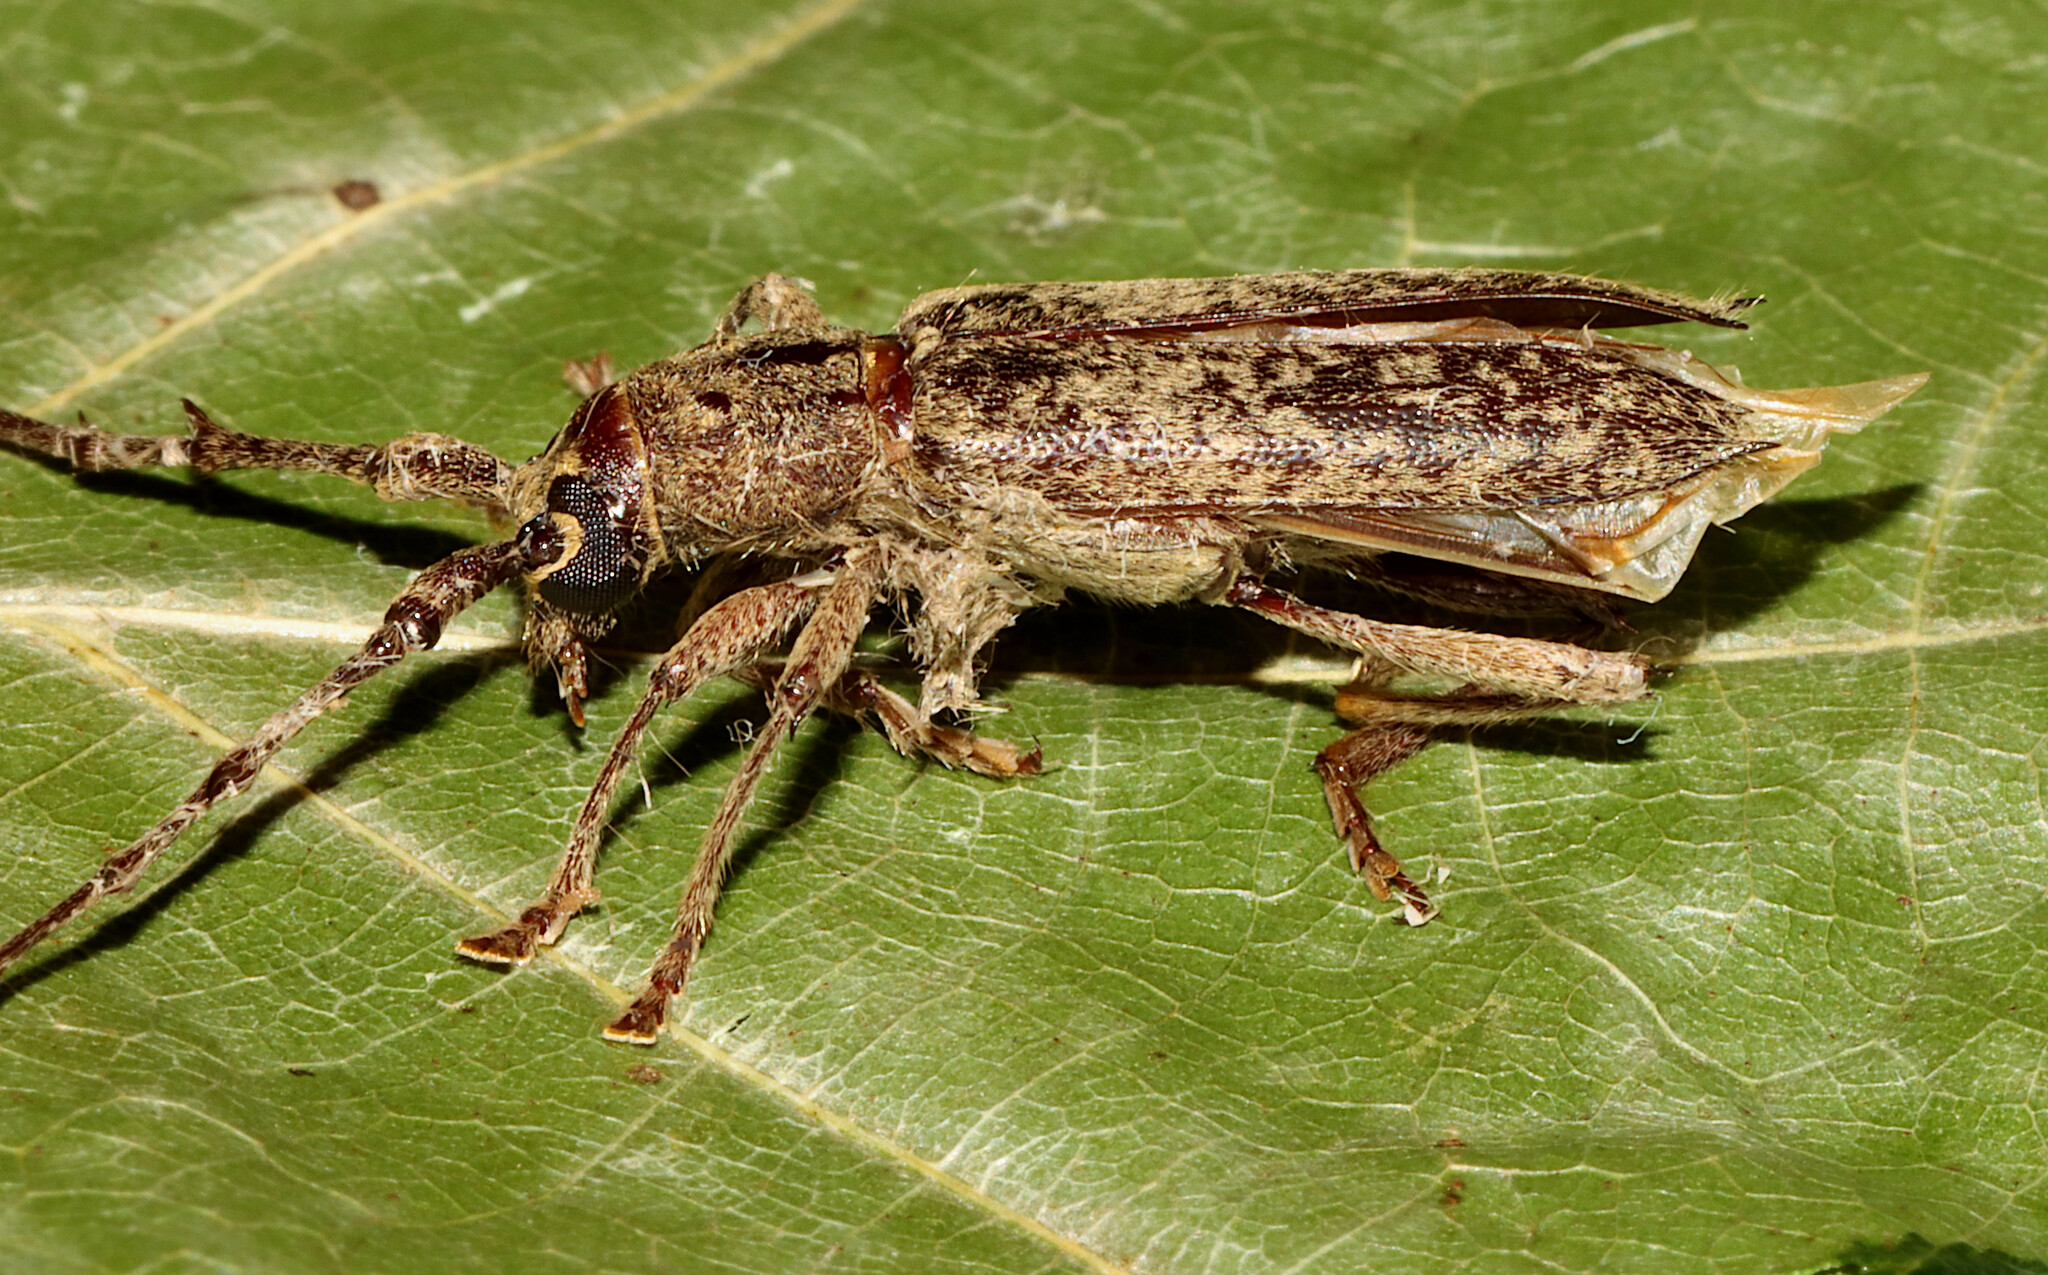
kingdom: Animalia
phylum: Arthropoda
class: Insecta
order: Coleoptera
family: Cerambycidae
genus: Parelaphidion
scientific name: Parelaphidion aspersum
